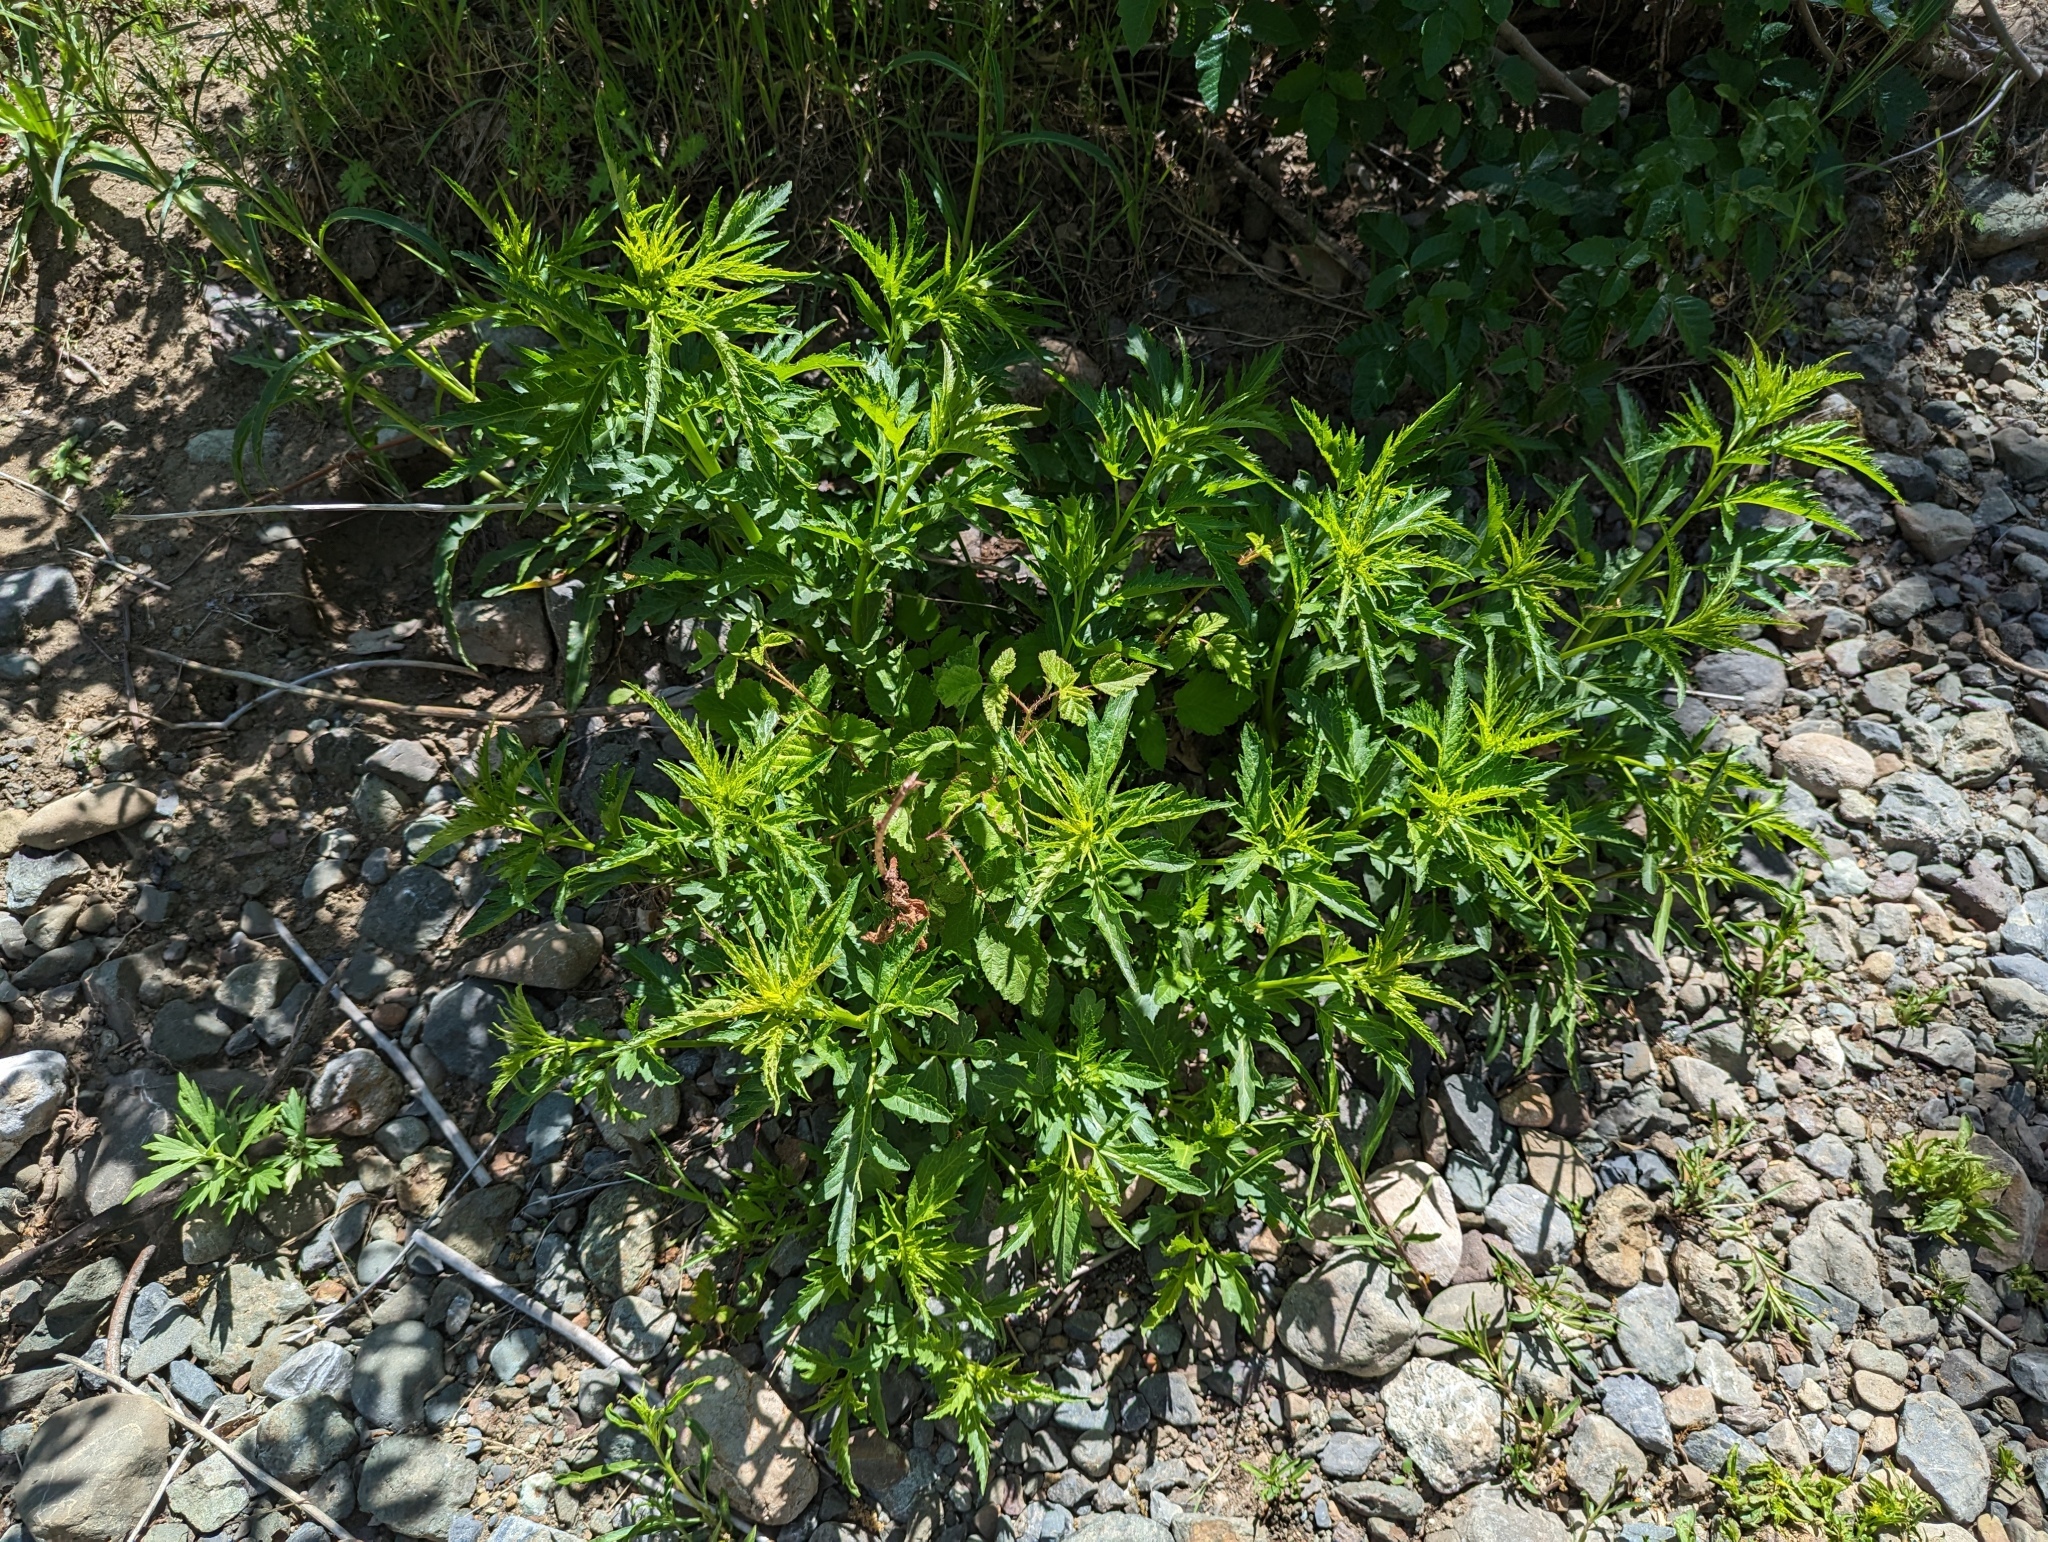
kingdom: Plantae
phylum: Tracheophyta
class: Magnoliopsida
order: Cucurbitales
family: Datiscaceae
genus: Datisca
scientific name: Datisca glomerata
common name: Durango-root
